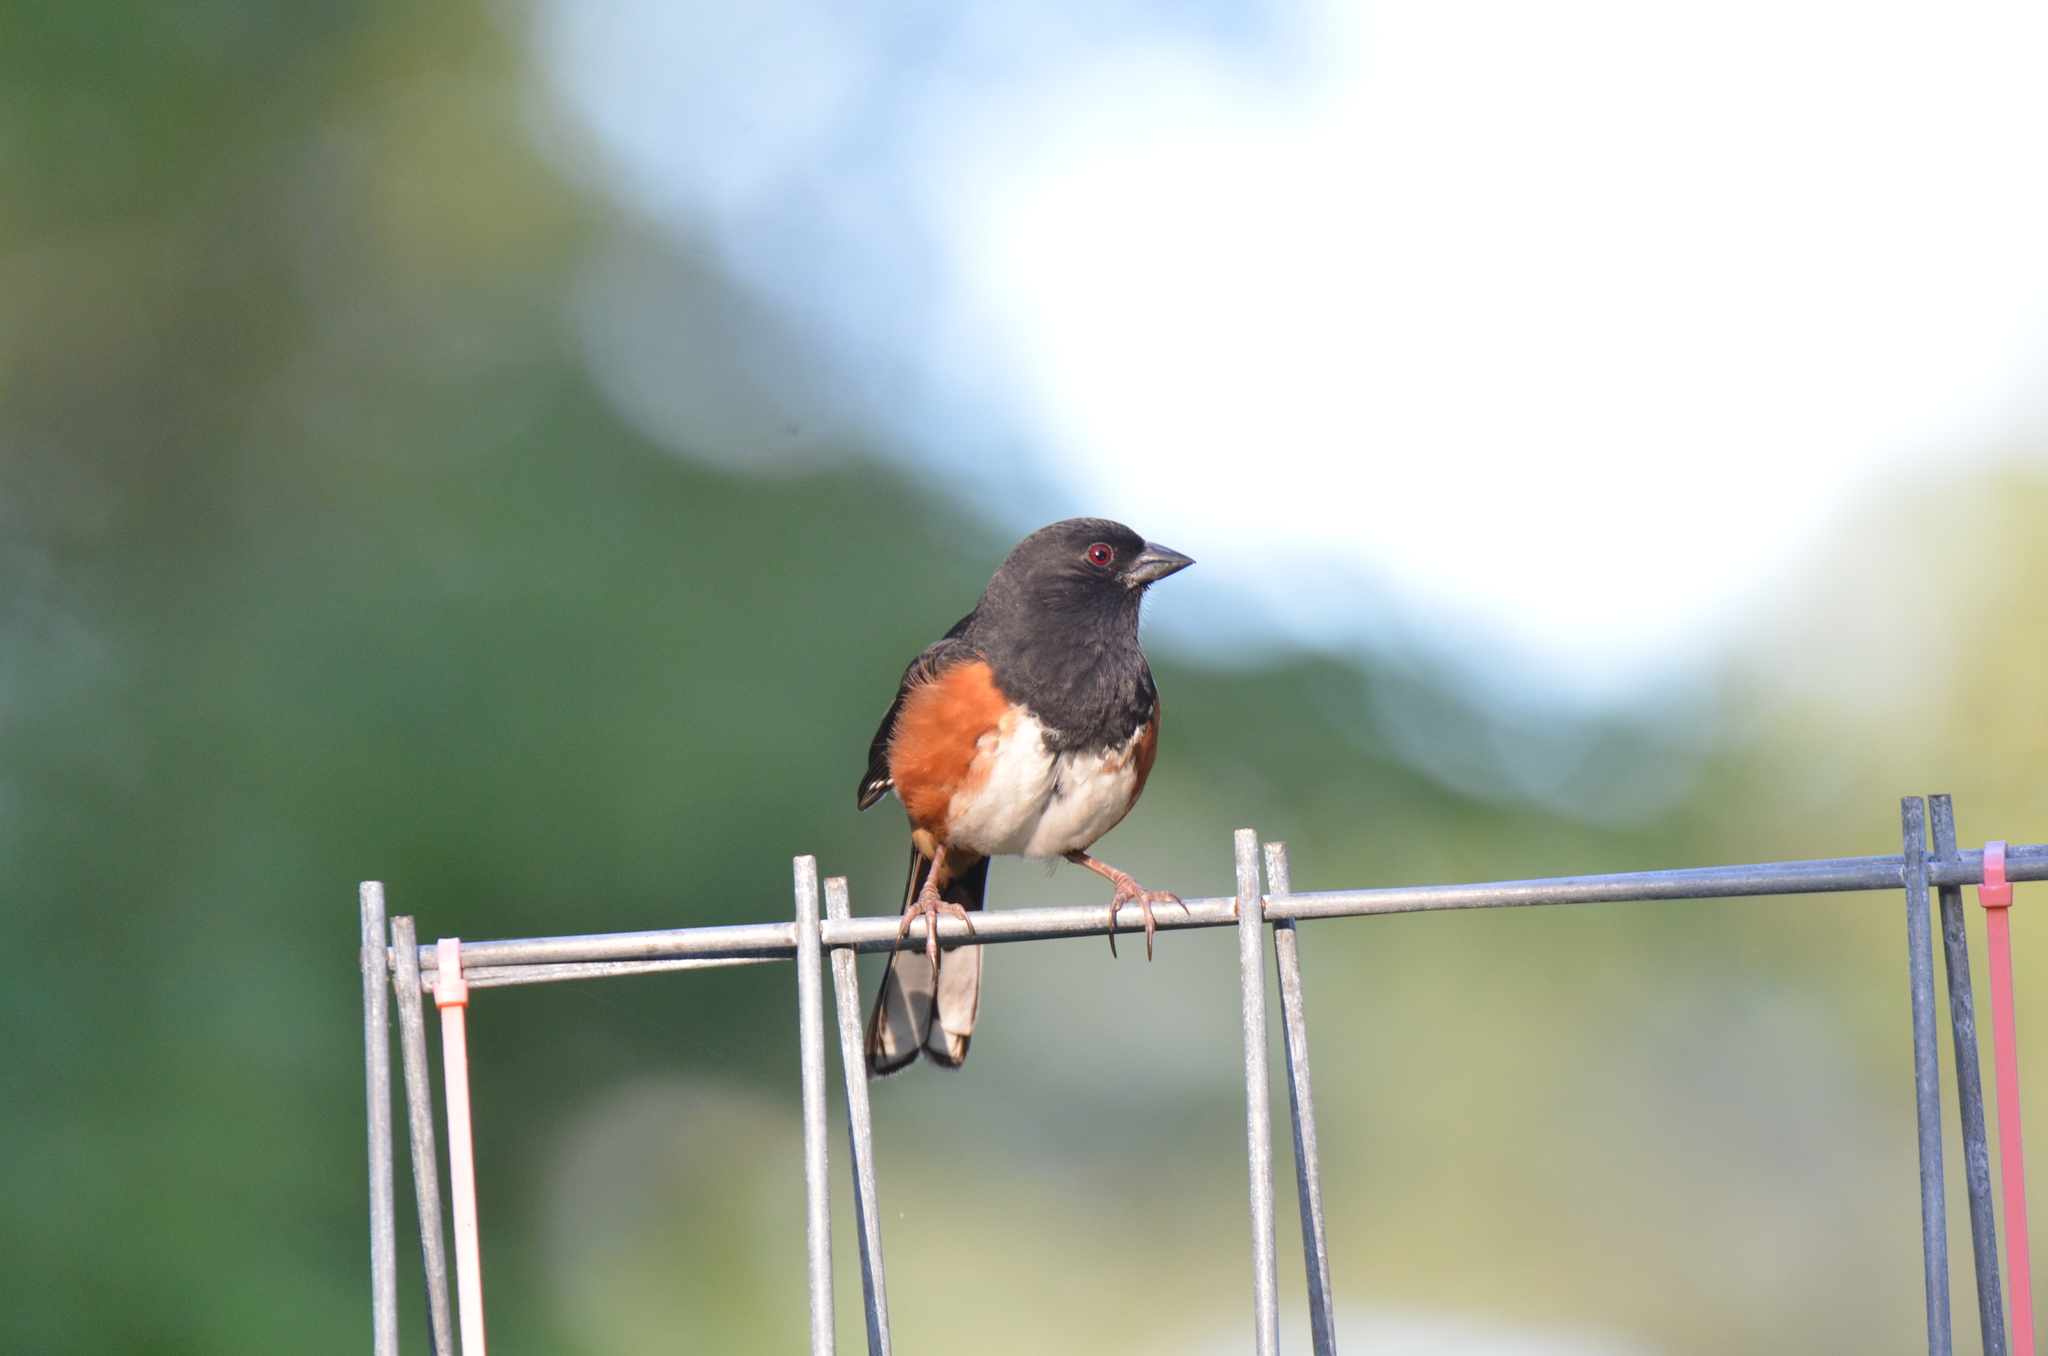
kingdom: Animalia
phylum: Chordata
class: Aves
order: Passeriformes
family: Passerellidae
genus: Pipilo
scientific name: Pipilo erythrophthalmus
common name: Eastern towhee
